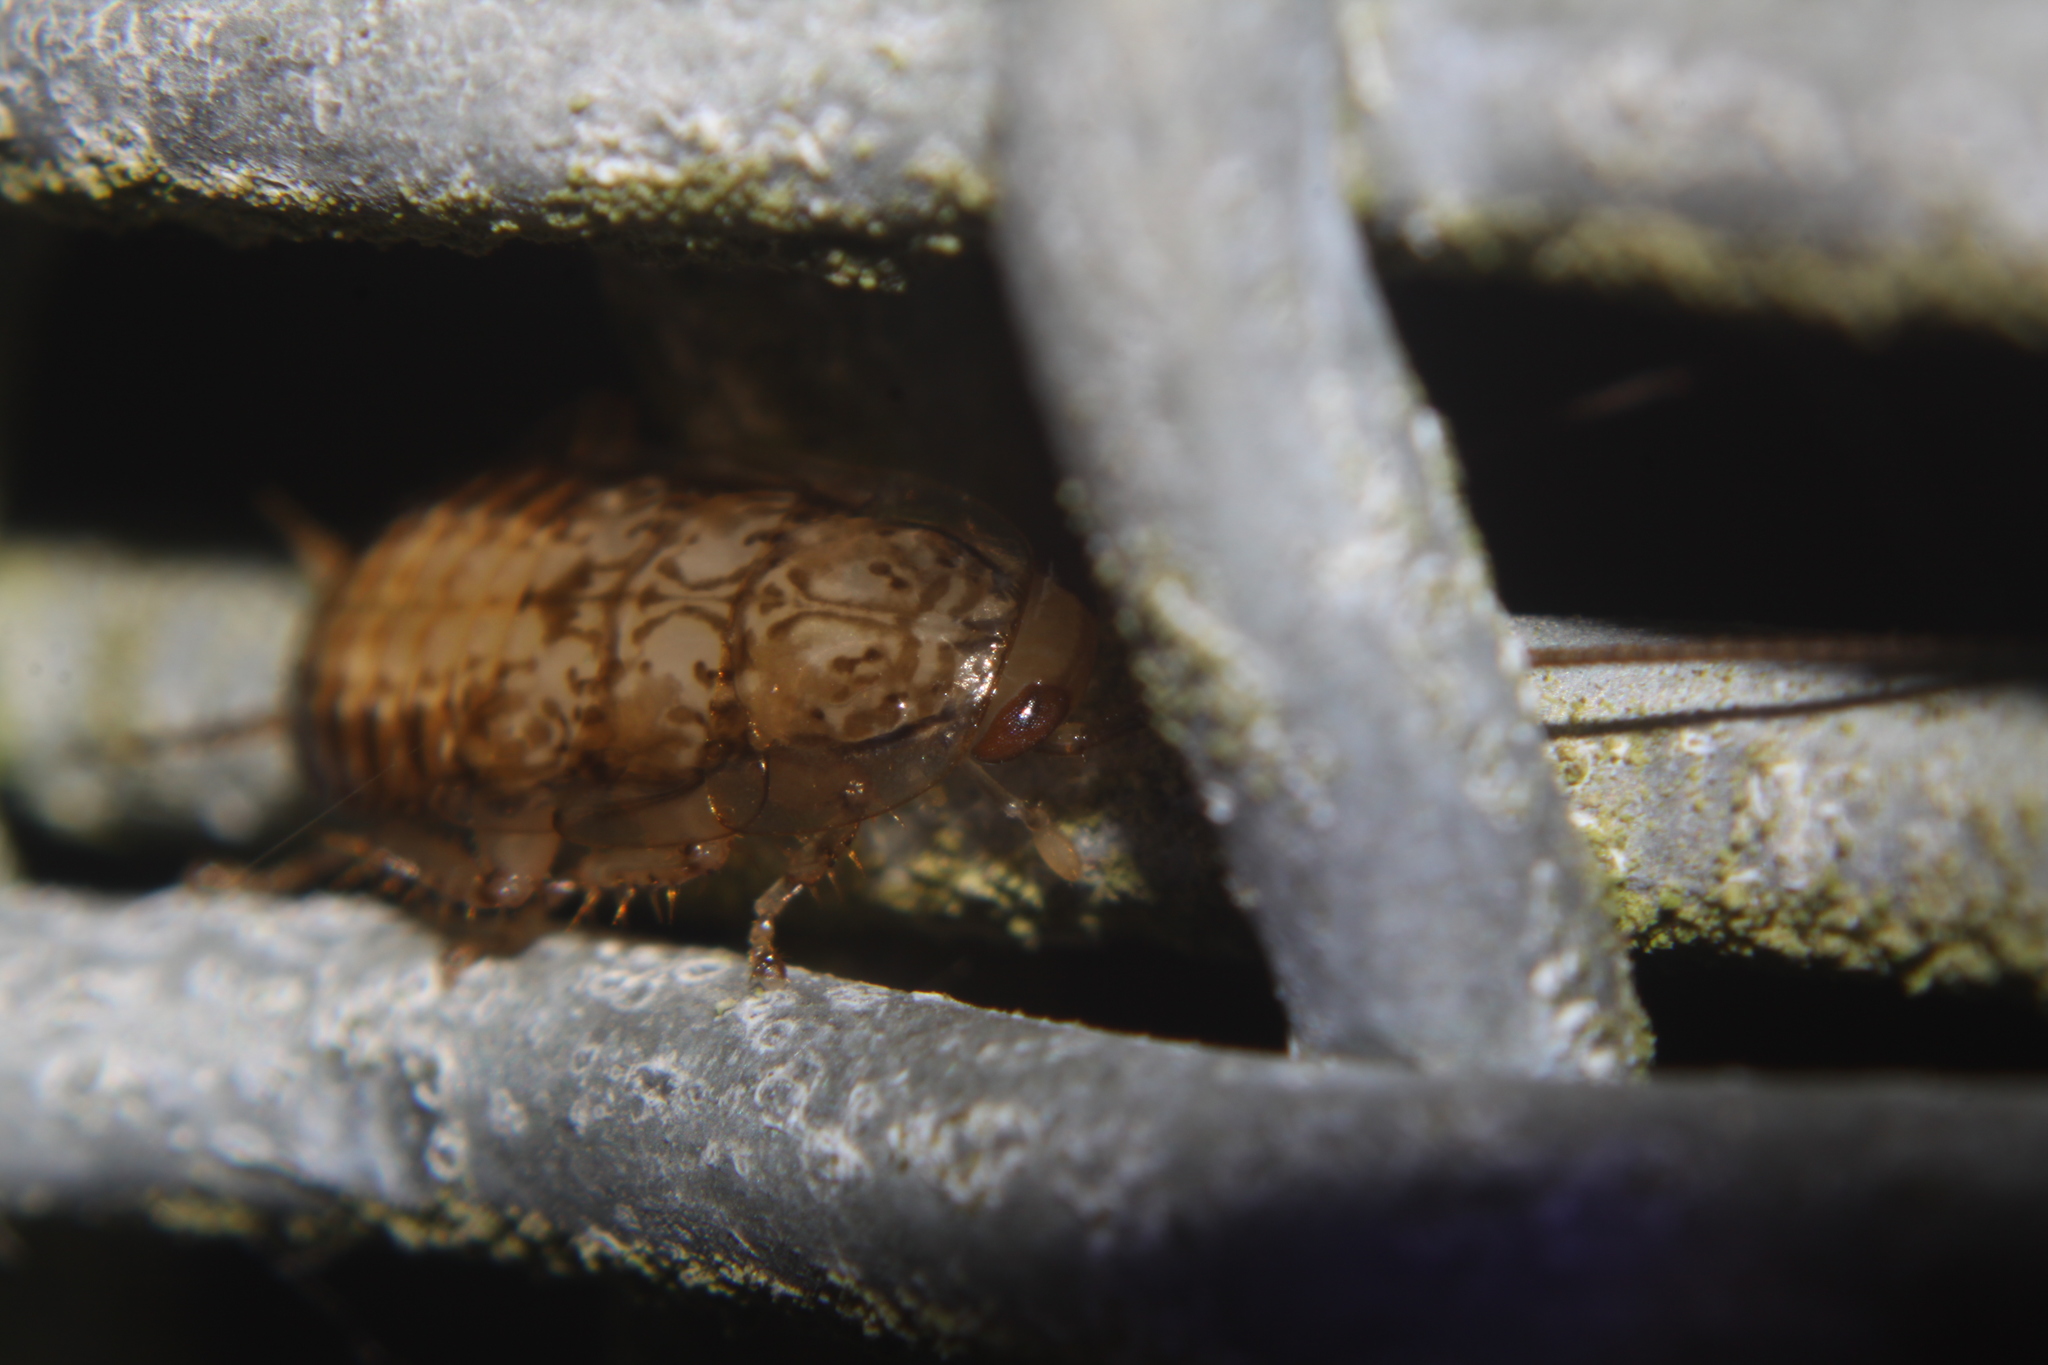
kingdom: Animalia
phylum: Arthropoda
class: Insecta
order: Blattodea
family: Ectobiidae
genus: Parellipsidion
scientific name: Parellipsidion latipenne
